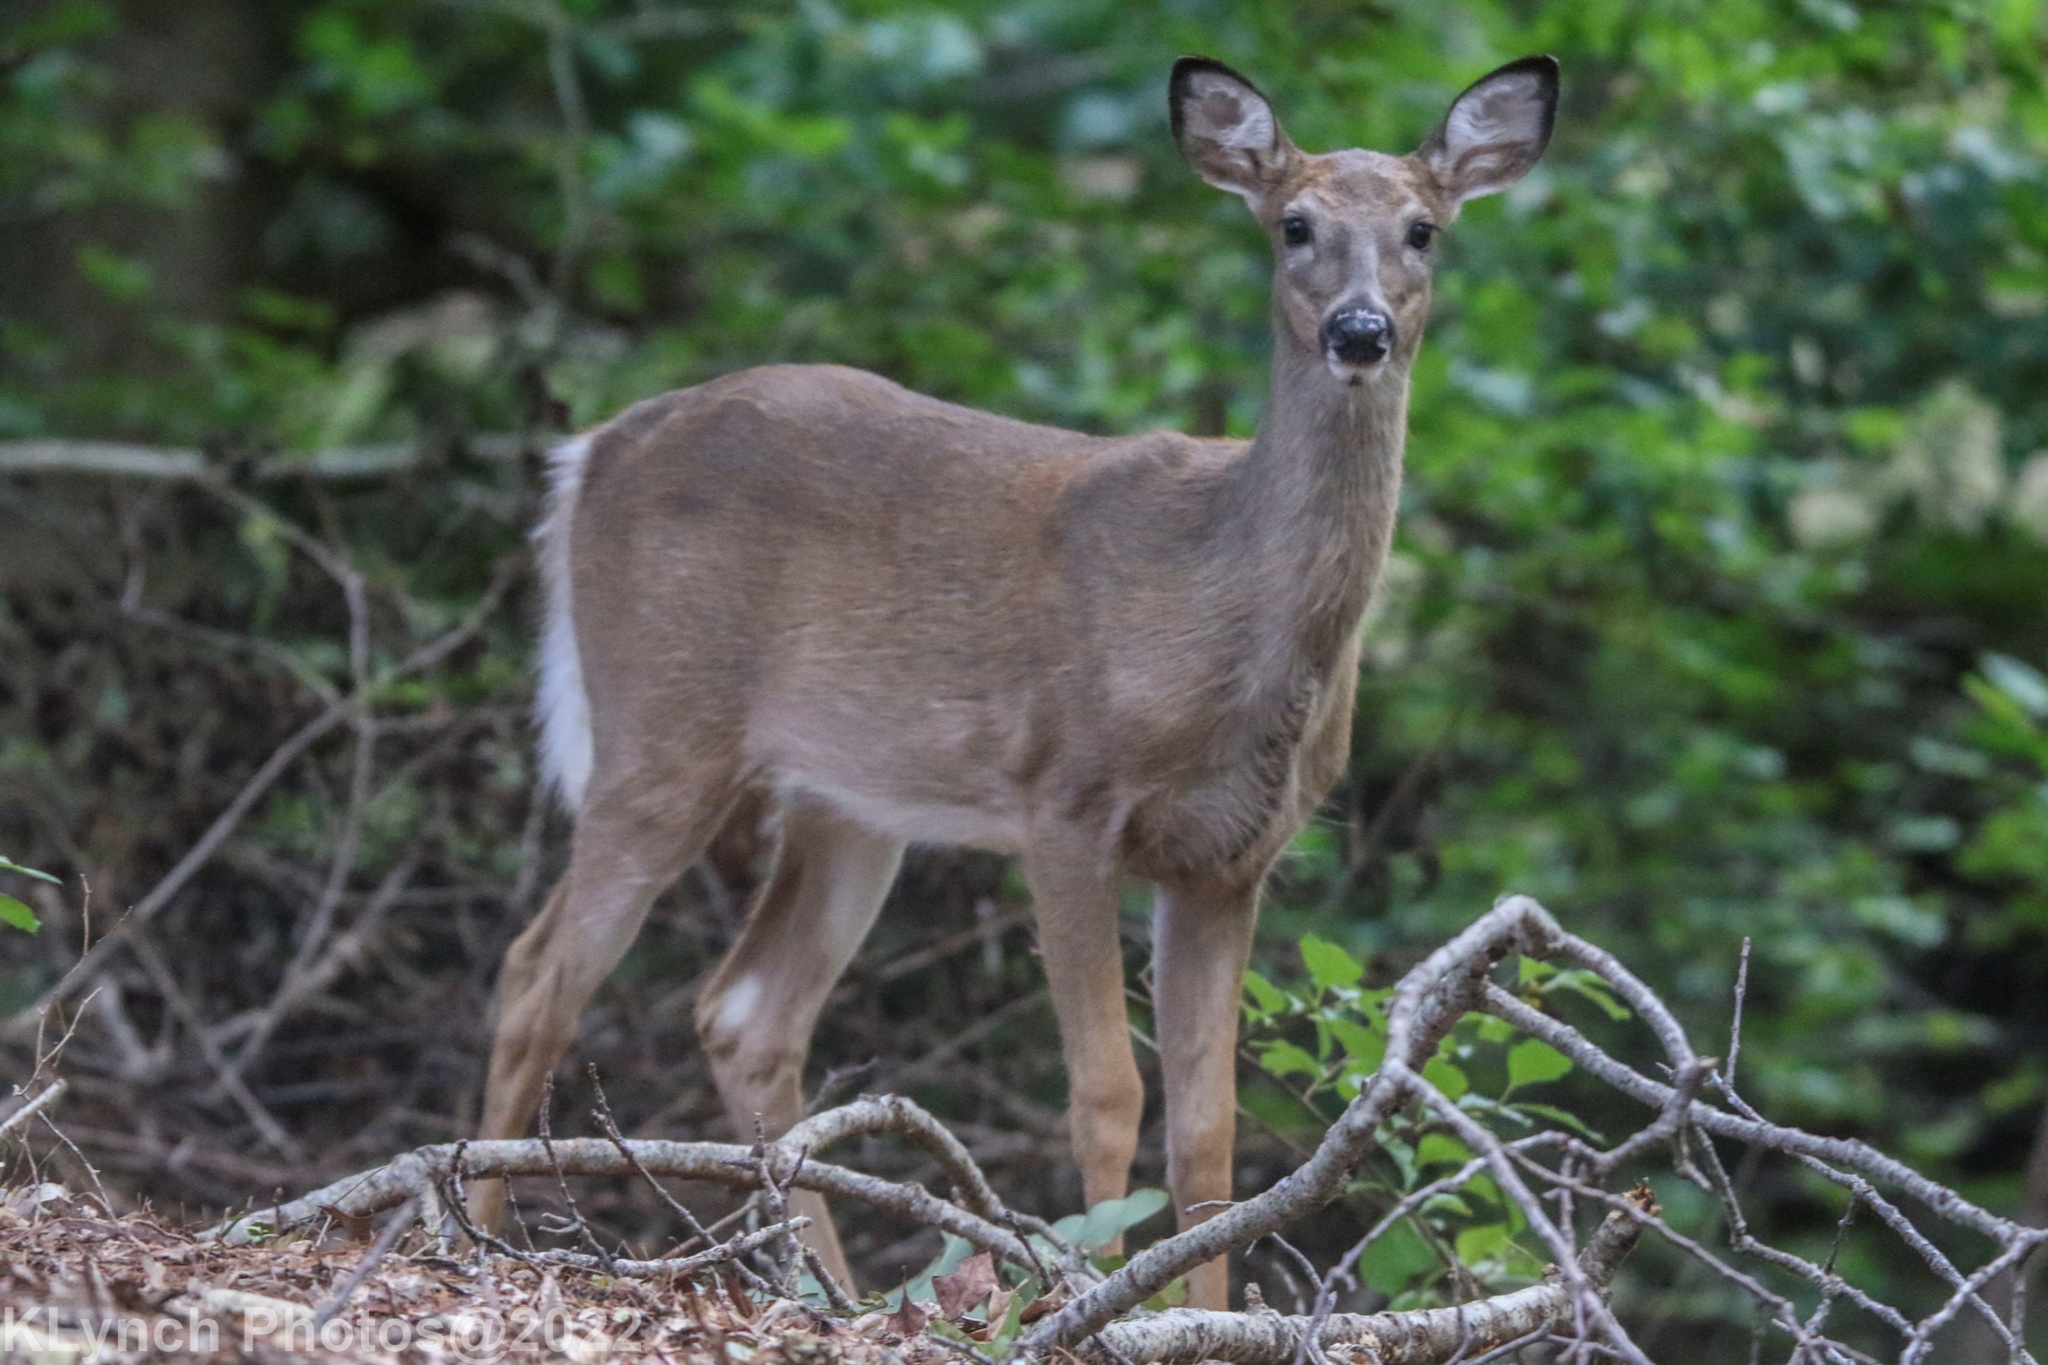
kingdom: Animalia
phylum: Chordata
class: Mammalia
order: Artiodactyla
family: Cervidae
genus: Odocoileus
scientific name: Odocoileus virginianus
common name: White-tailed deer
